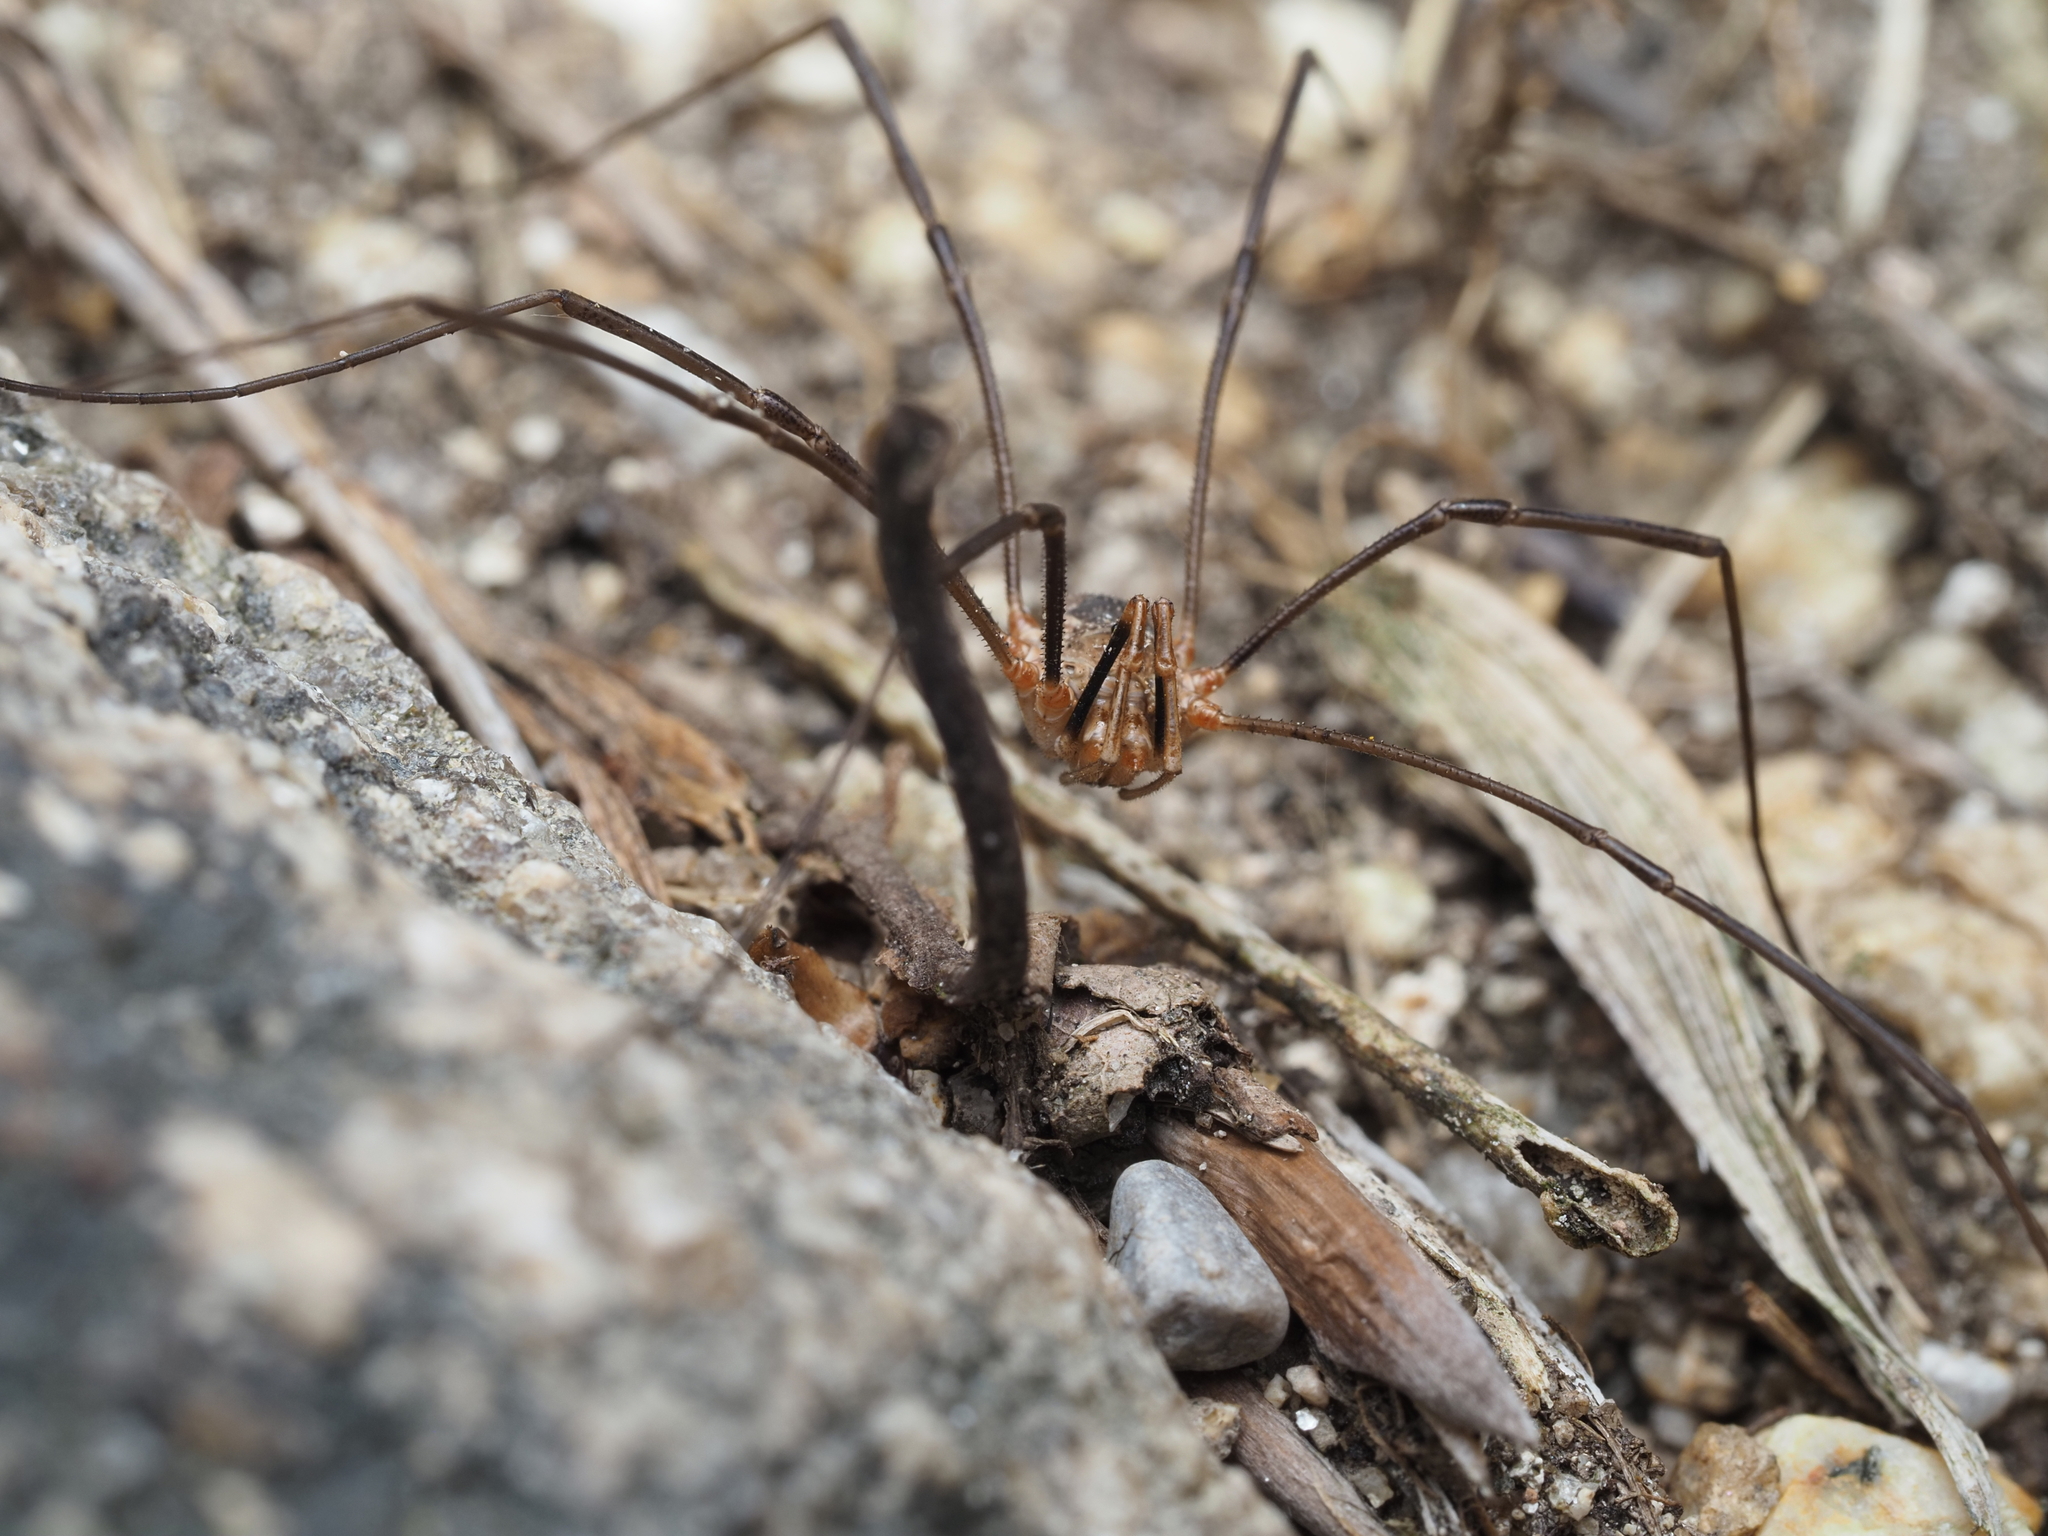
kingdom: Animalia
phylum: Arthropoda
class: Arachnida
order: Opiliones
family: Phalangiidae
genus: Phalangium
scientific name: Phalangium opilio
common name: Daddy longleg
